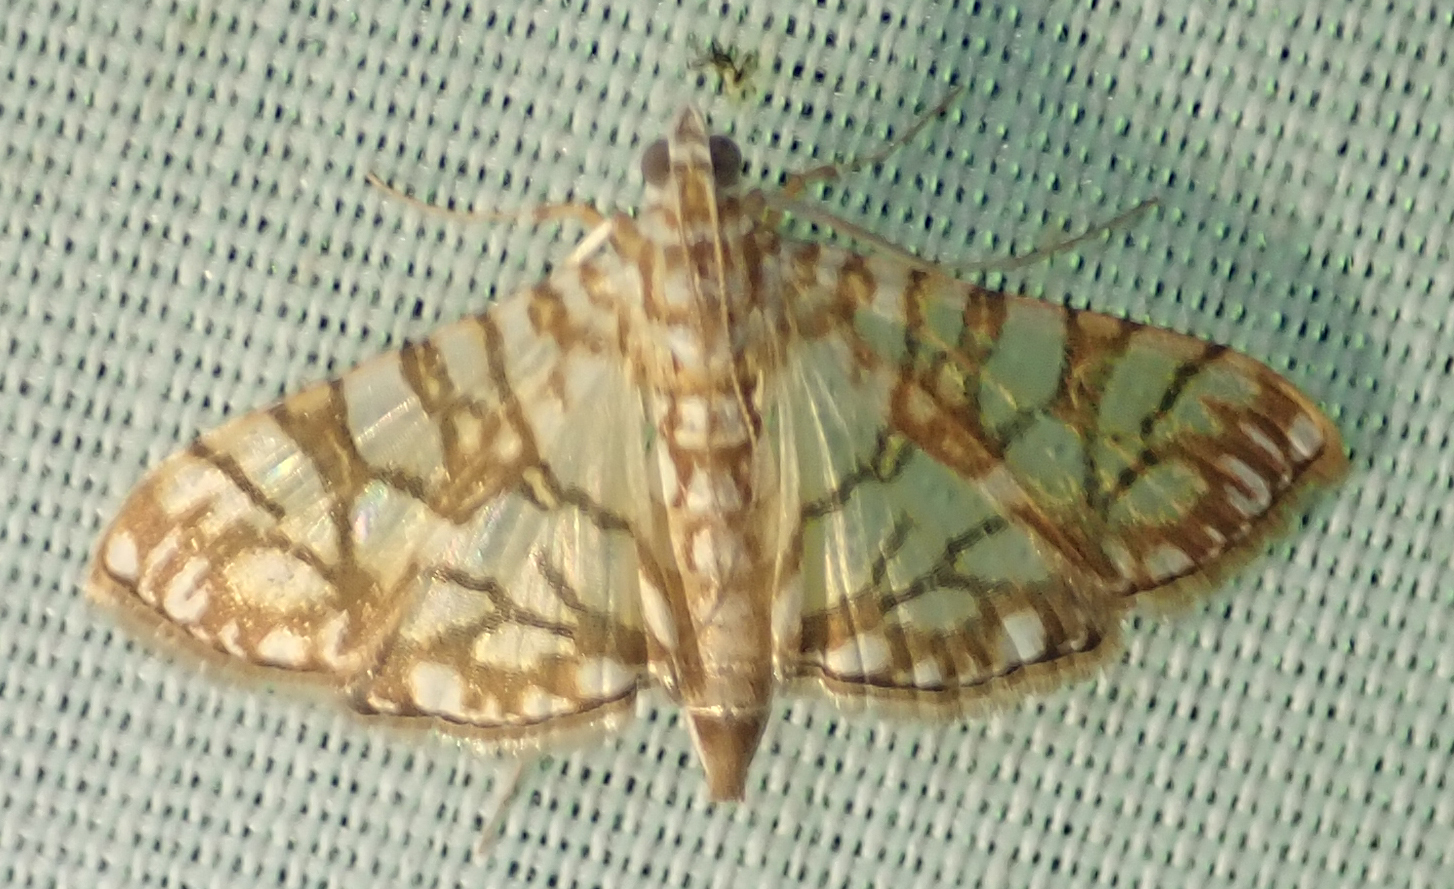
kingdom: Animalia
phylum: Arthropoda
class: Insecta
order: Lepidoptera
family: Crambidae
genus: Synclera
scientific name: Synclera traducalis
